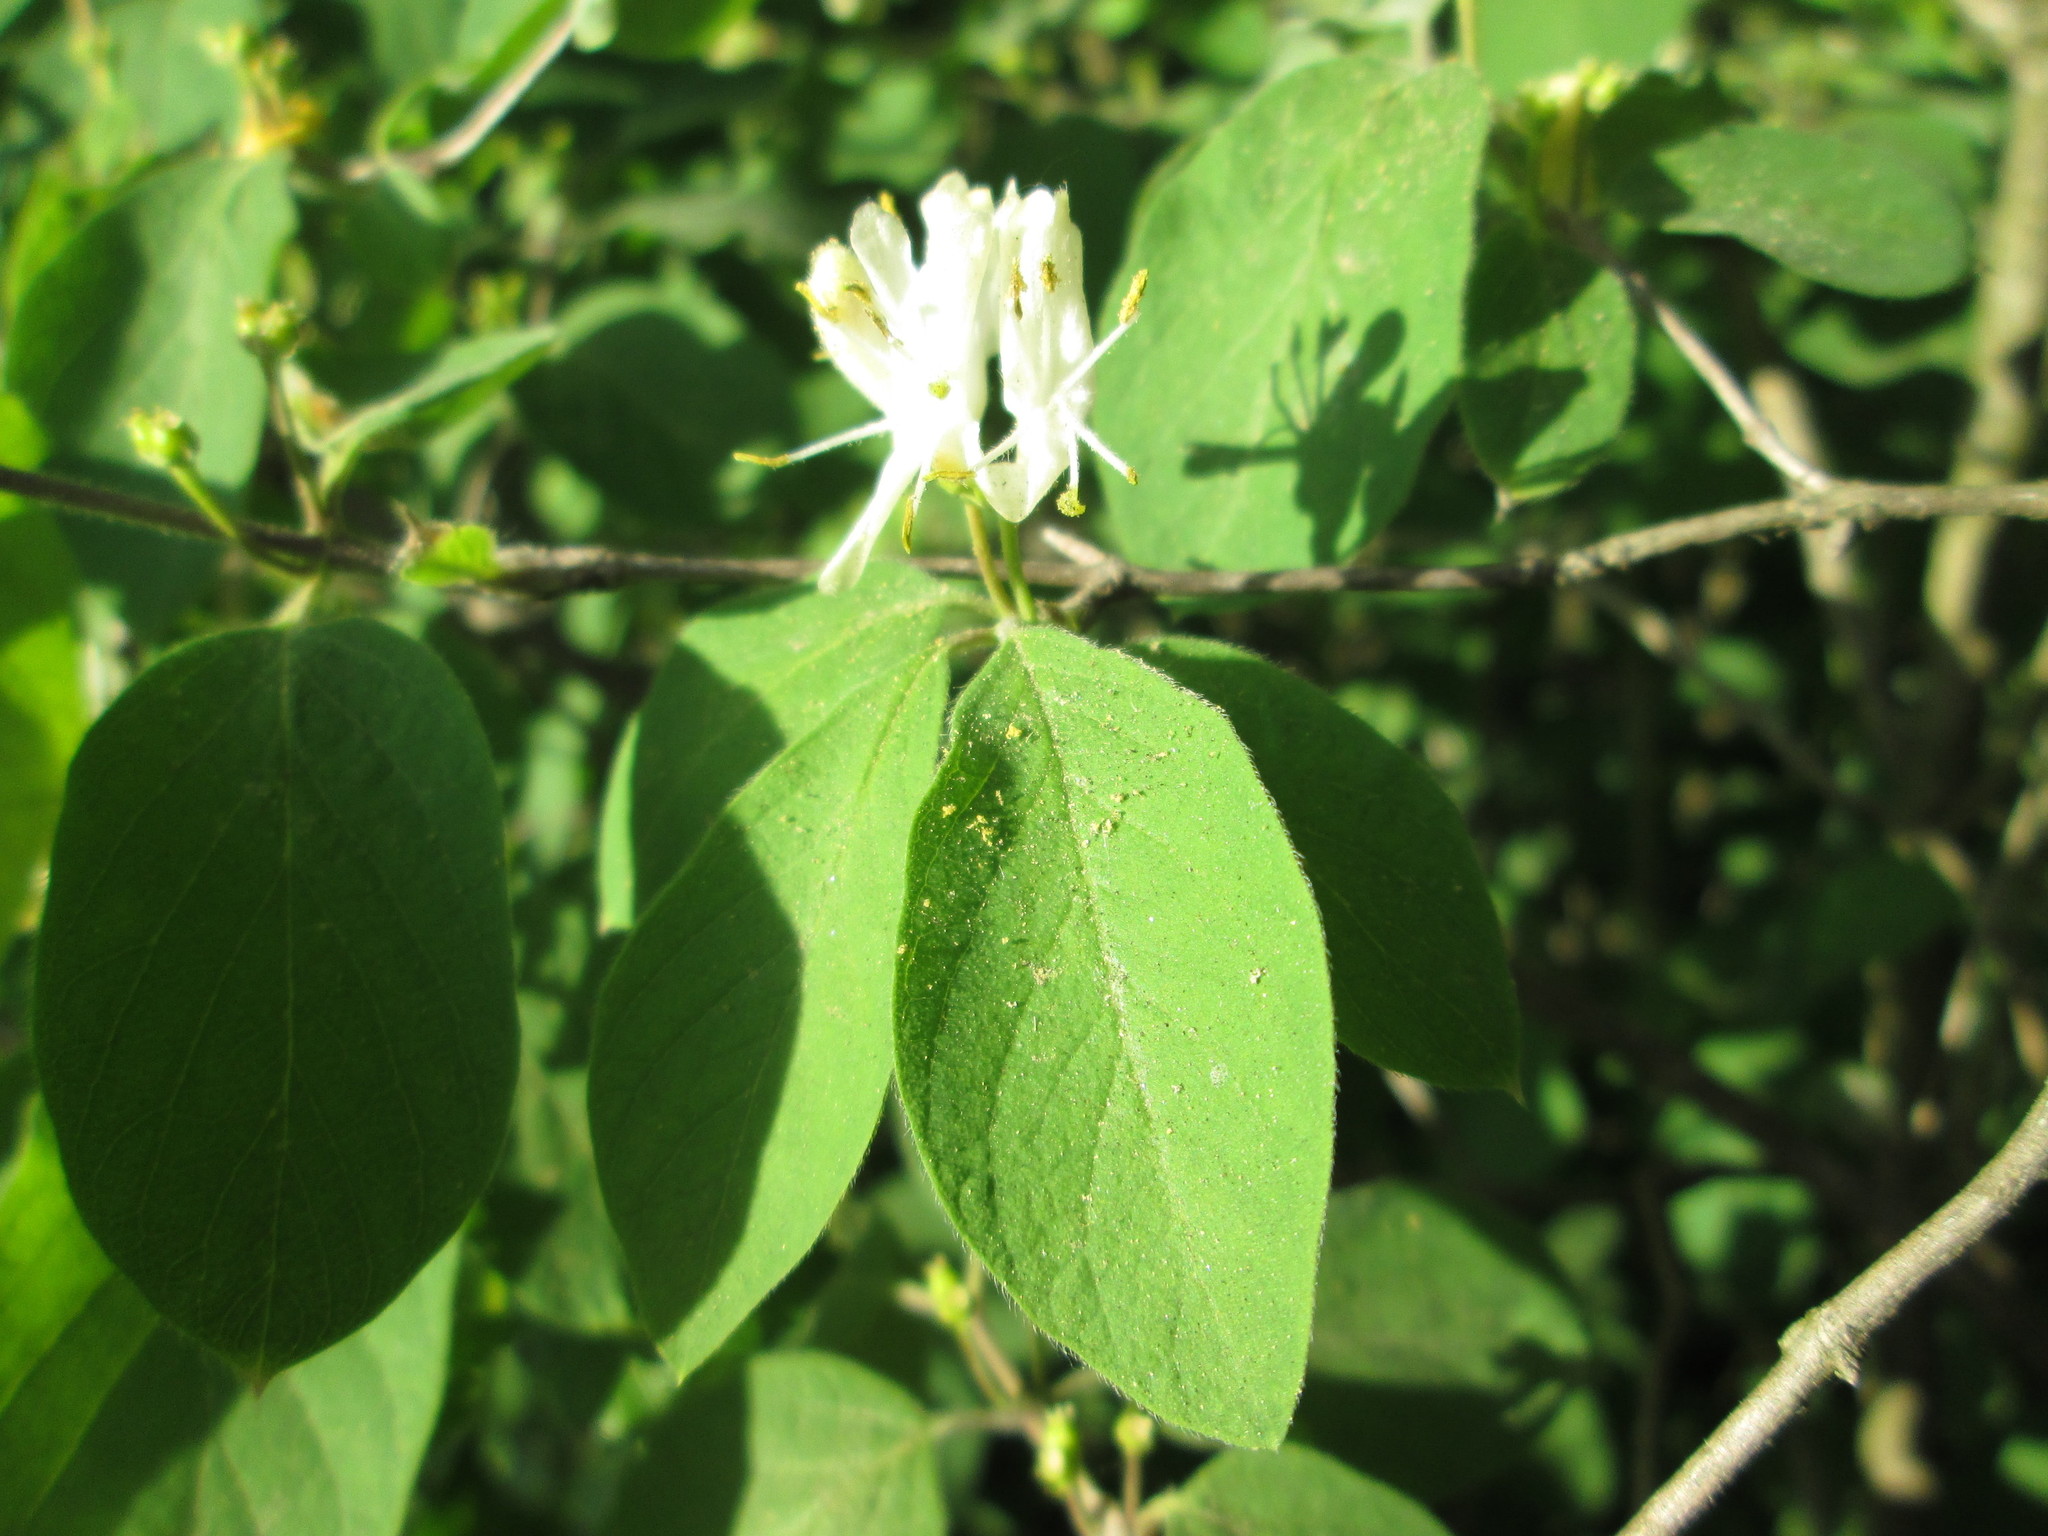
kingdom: Plantae
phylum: Tracheophyta
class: Magnoliopsida
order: Dipsacales
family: Caprifoliaceae
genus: Lonicera
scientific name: Lonicera xylosteum
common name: Fly honeysuckle
